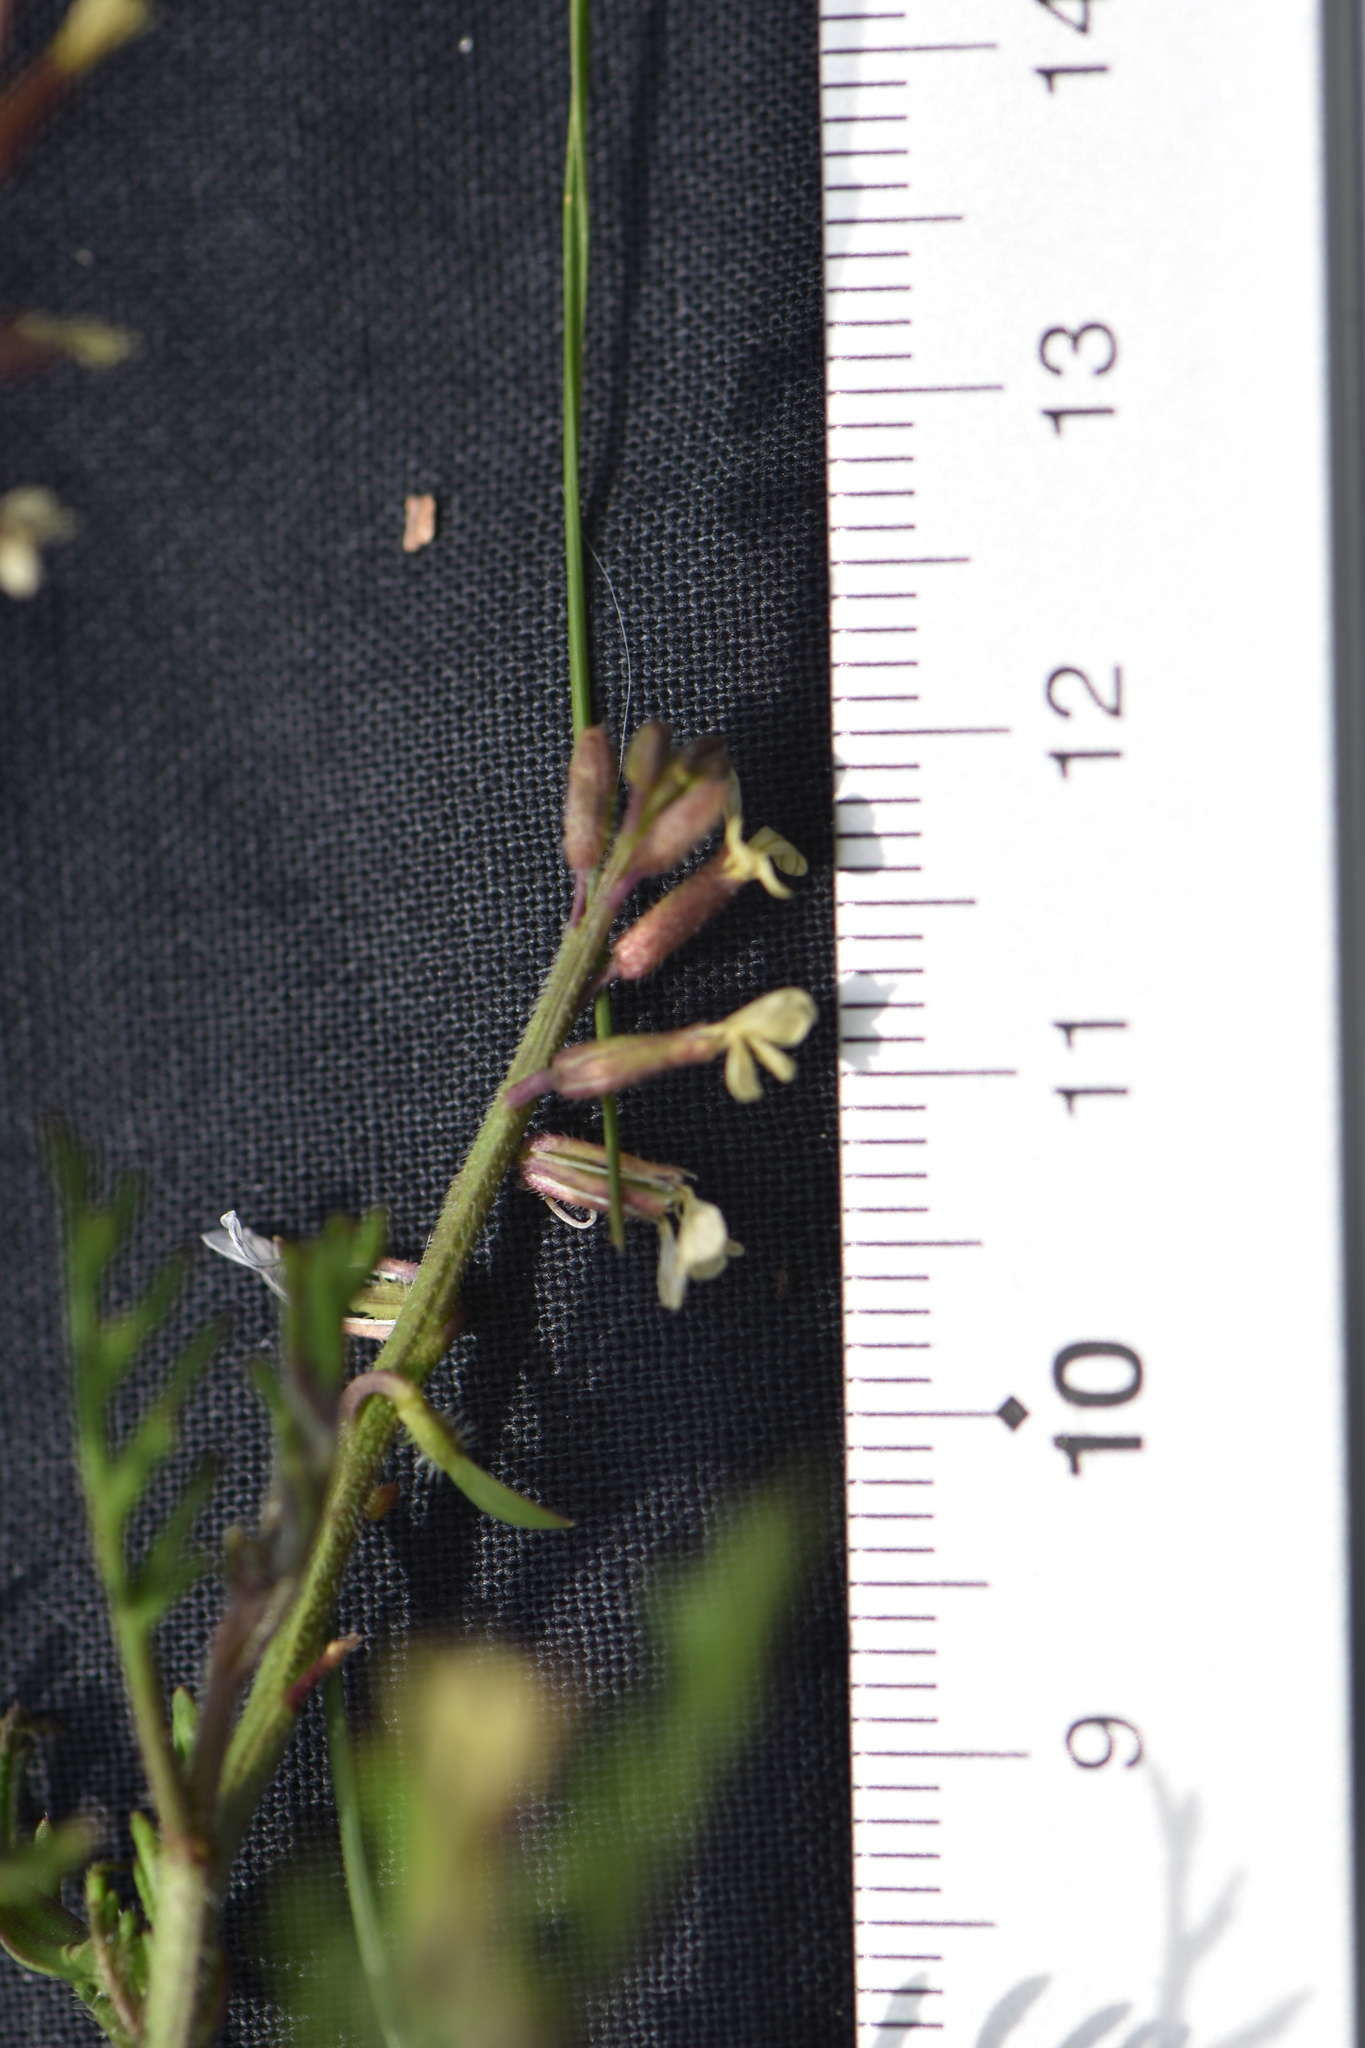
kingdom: Plantae
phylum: Tracheophyta
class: Magnoliopsida
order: Brassicales
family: Brassicaceae
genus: Carrichtera
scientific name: Carrichtera annua
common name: Cress rocket
